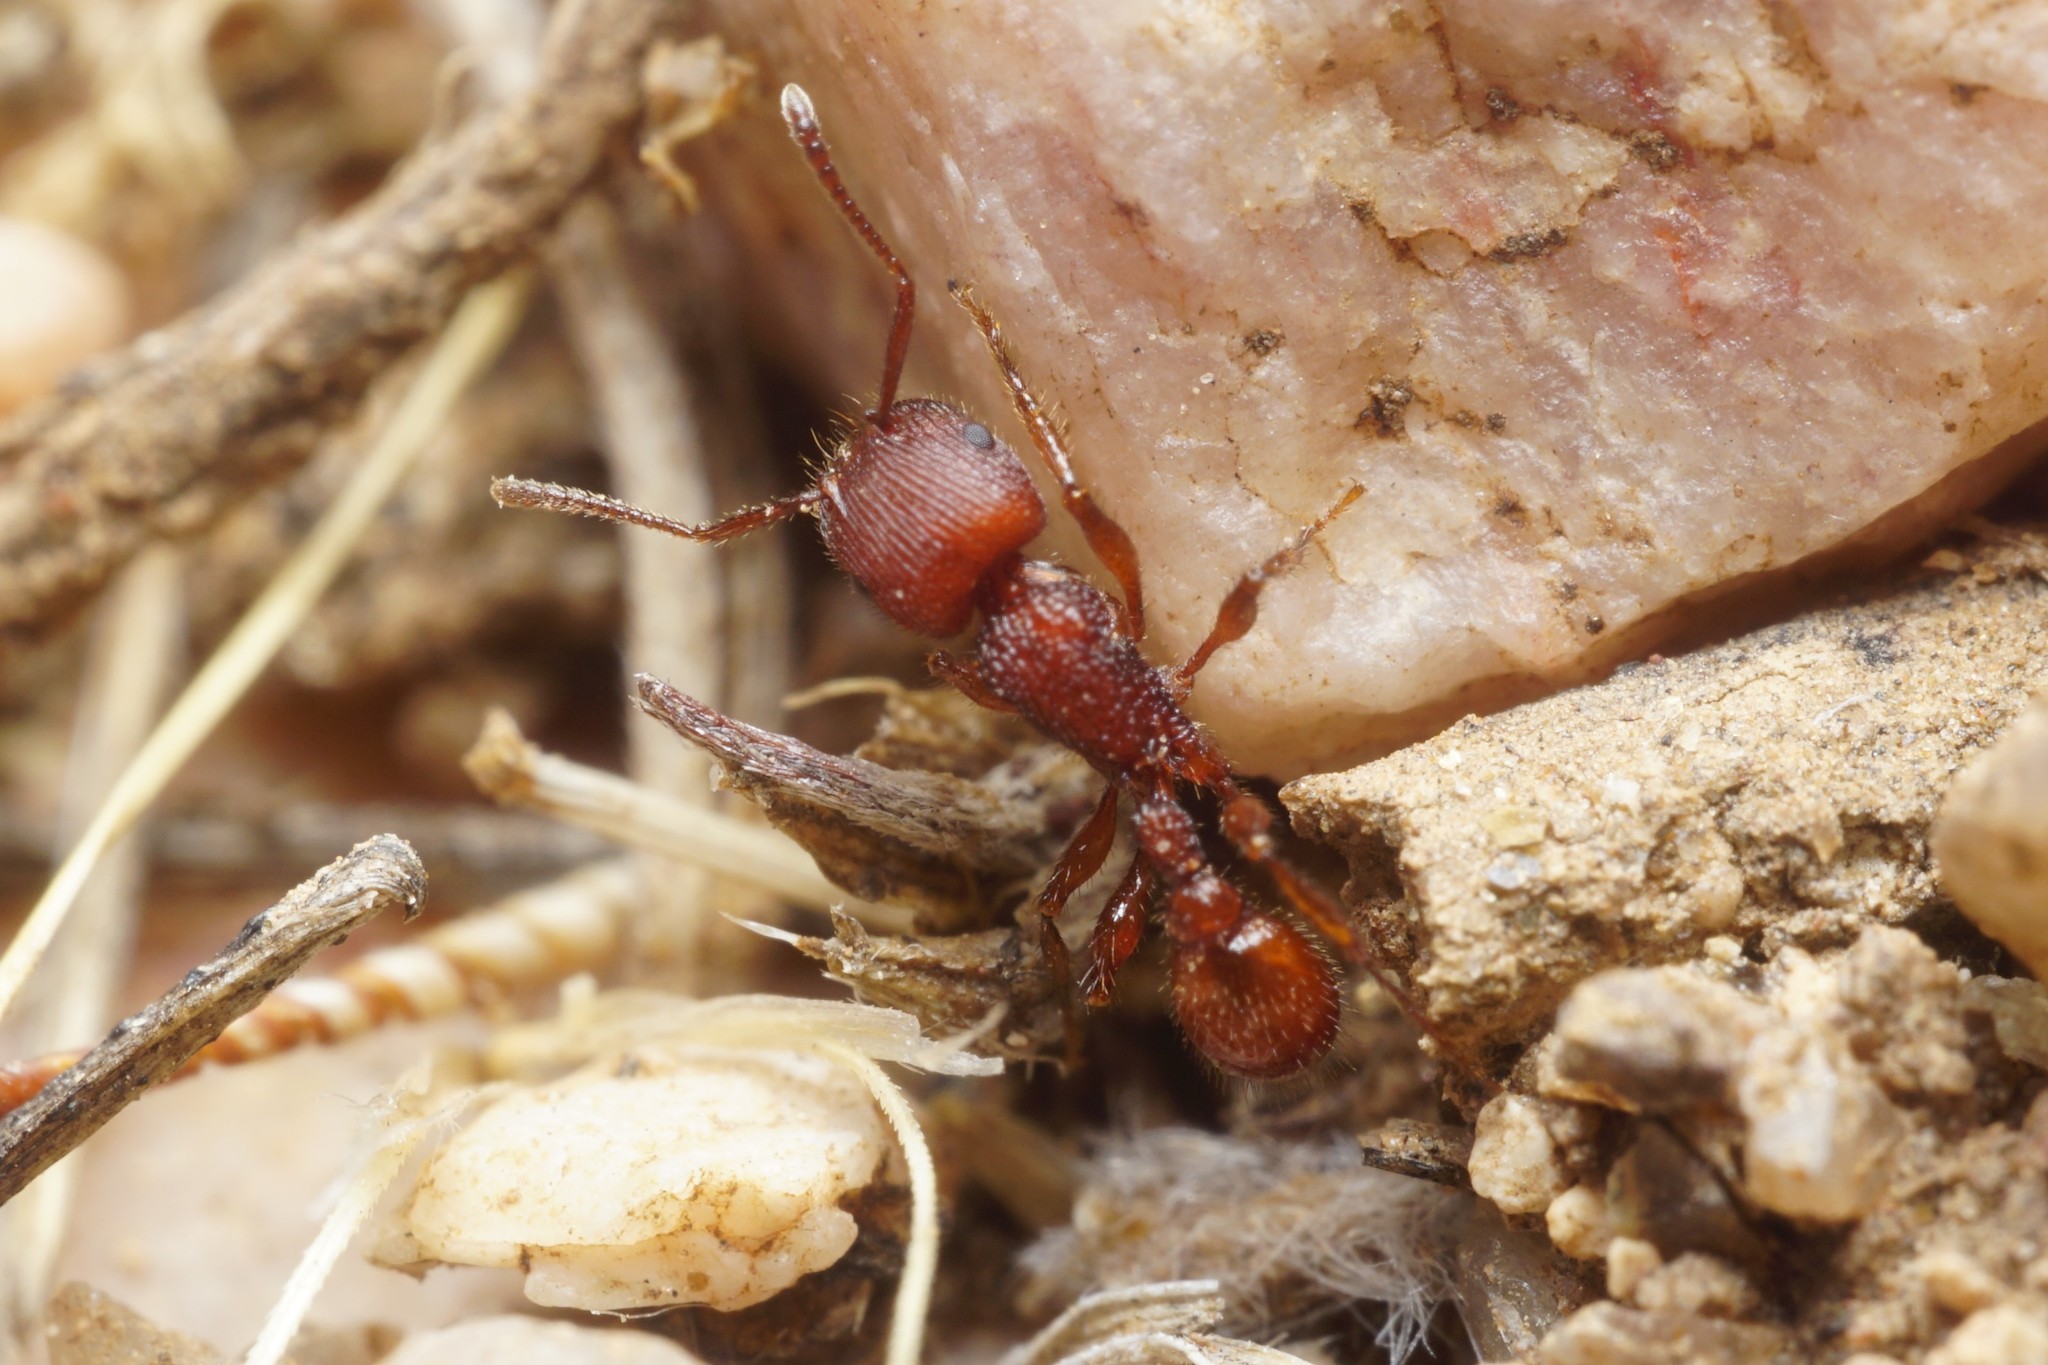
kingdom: Animalia
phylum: Arthropoda
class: Insecta
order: Hymenoptera
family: Formicidae
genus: Pogonomyrmex
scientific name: Pogonomyrmex imberbiculus
